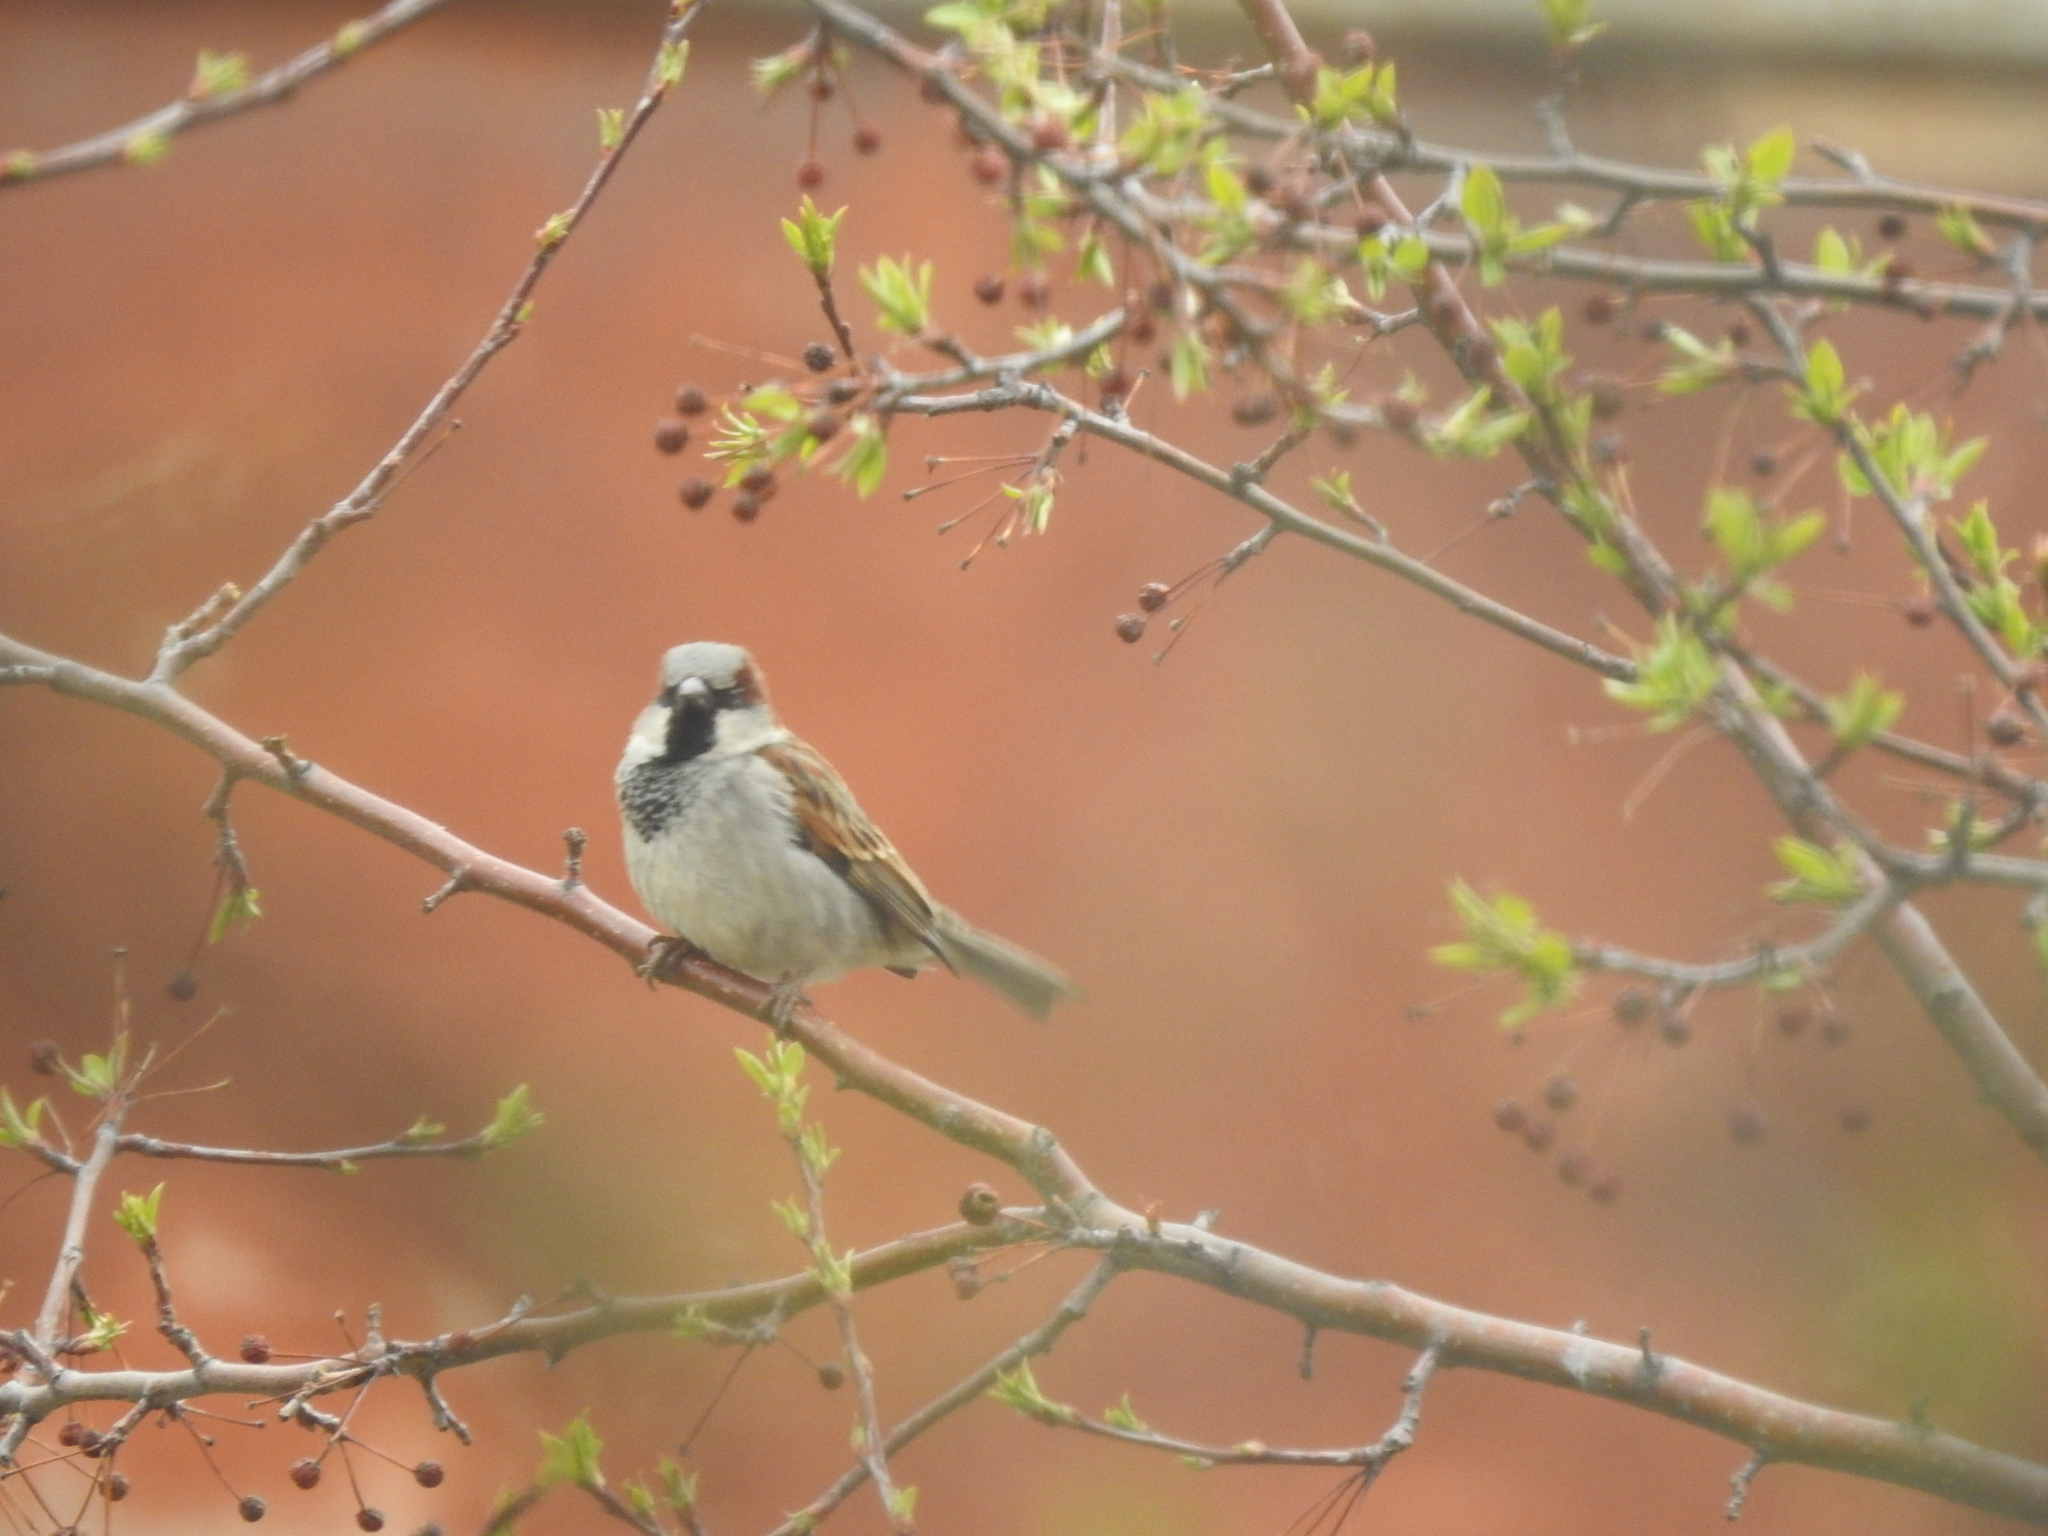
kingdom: Animalia
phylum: Chordata
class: Aves
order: Passeriformes
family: Passeridae
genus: Passer
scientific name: Passer domesticus
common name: House sparrow
